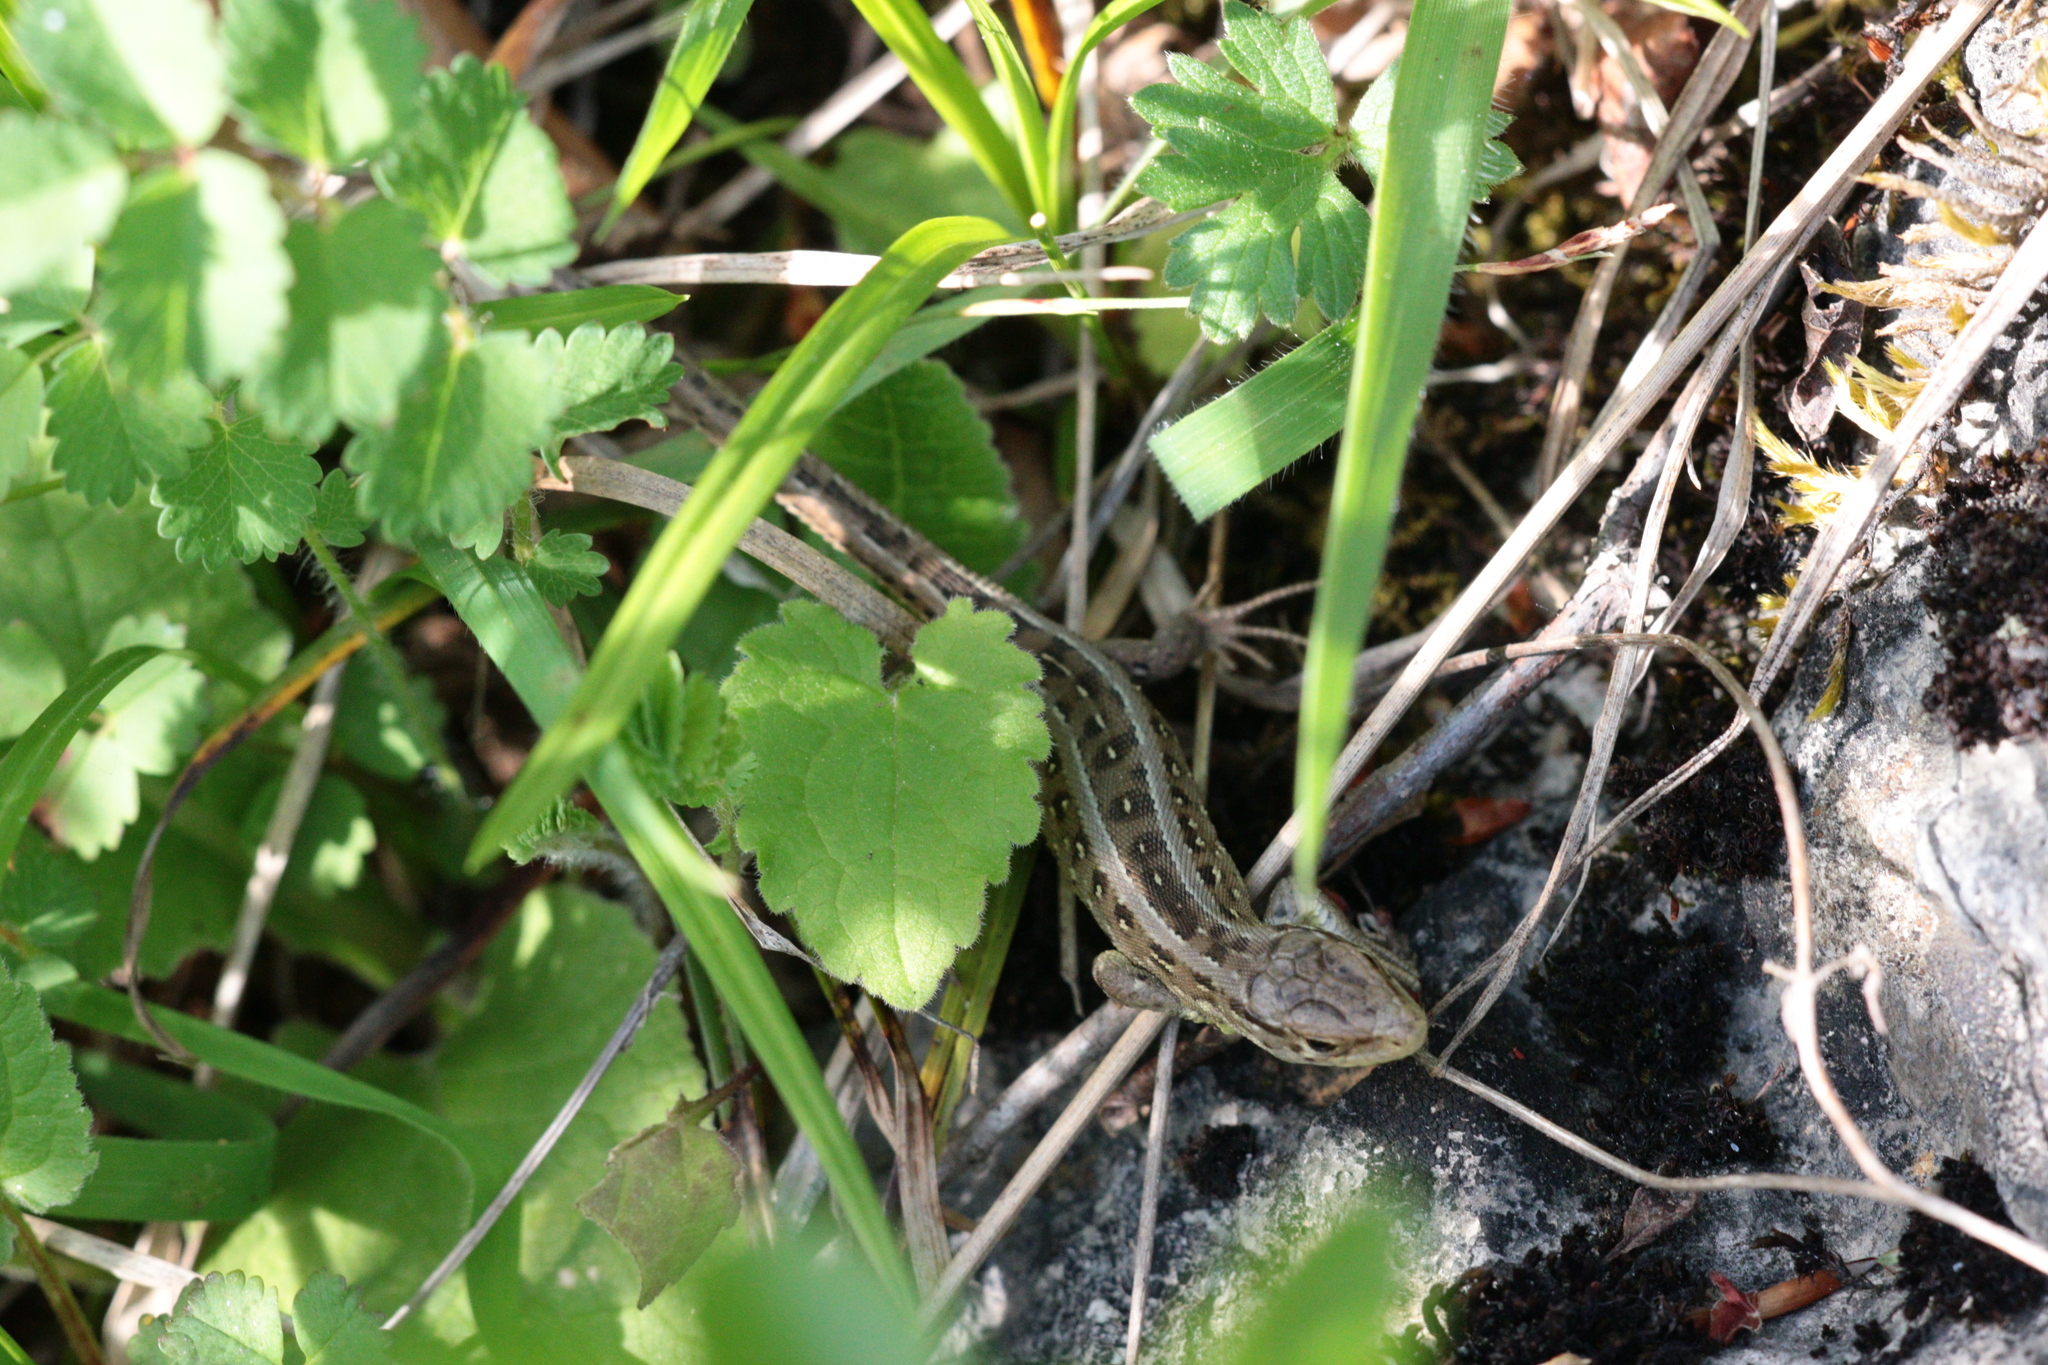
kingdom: Animalia
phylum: Chordata
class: Squamata
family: Lacertidae
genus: Lacerta
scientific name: Lacerta agilis
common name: Sand lizard
